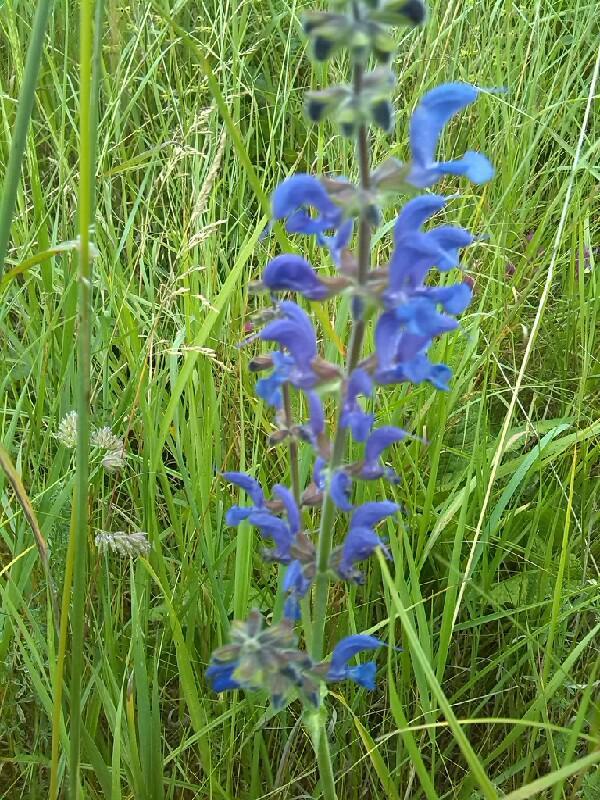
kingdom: Plantae
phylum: Tracheophyta
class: Magnoliopsida
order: Lamiales
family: Lamiaceae
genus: Salvia
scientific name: Salvia pratensis
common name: Meadow sage
